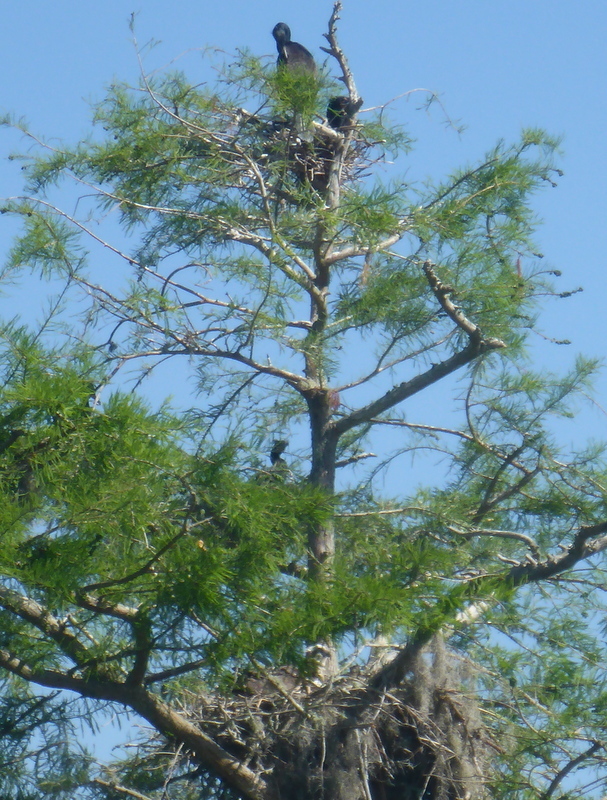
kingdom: Animalia
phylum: Chordata
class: Aves
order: Suliformes
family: Anhingidae
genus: Anhinga
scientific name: Anhinga anhinga
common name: Anhinga
